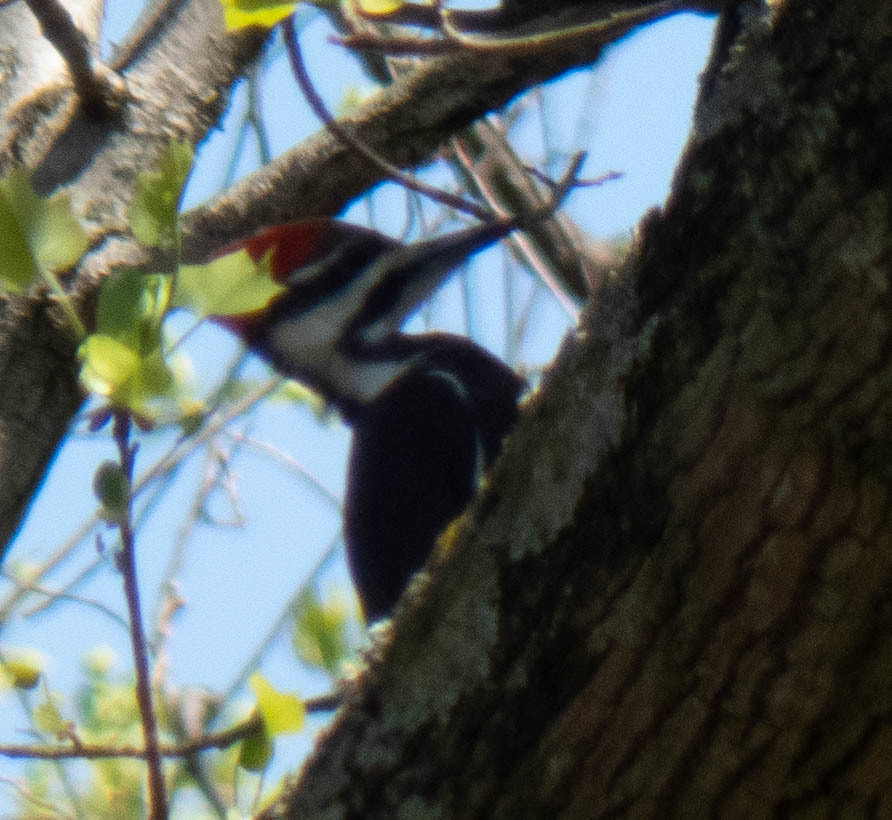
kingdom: Animalia
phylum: Chordata
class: Aves
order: Piciformes
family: Picidae
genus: Dryocopus
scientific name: Dryocopus pileatus
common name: Pileated woodpecker
